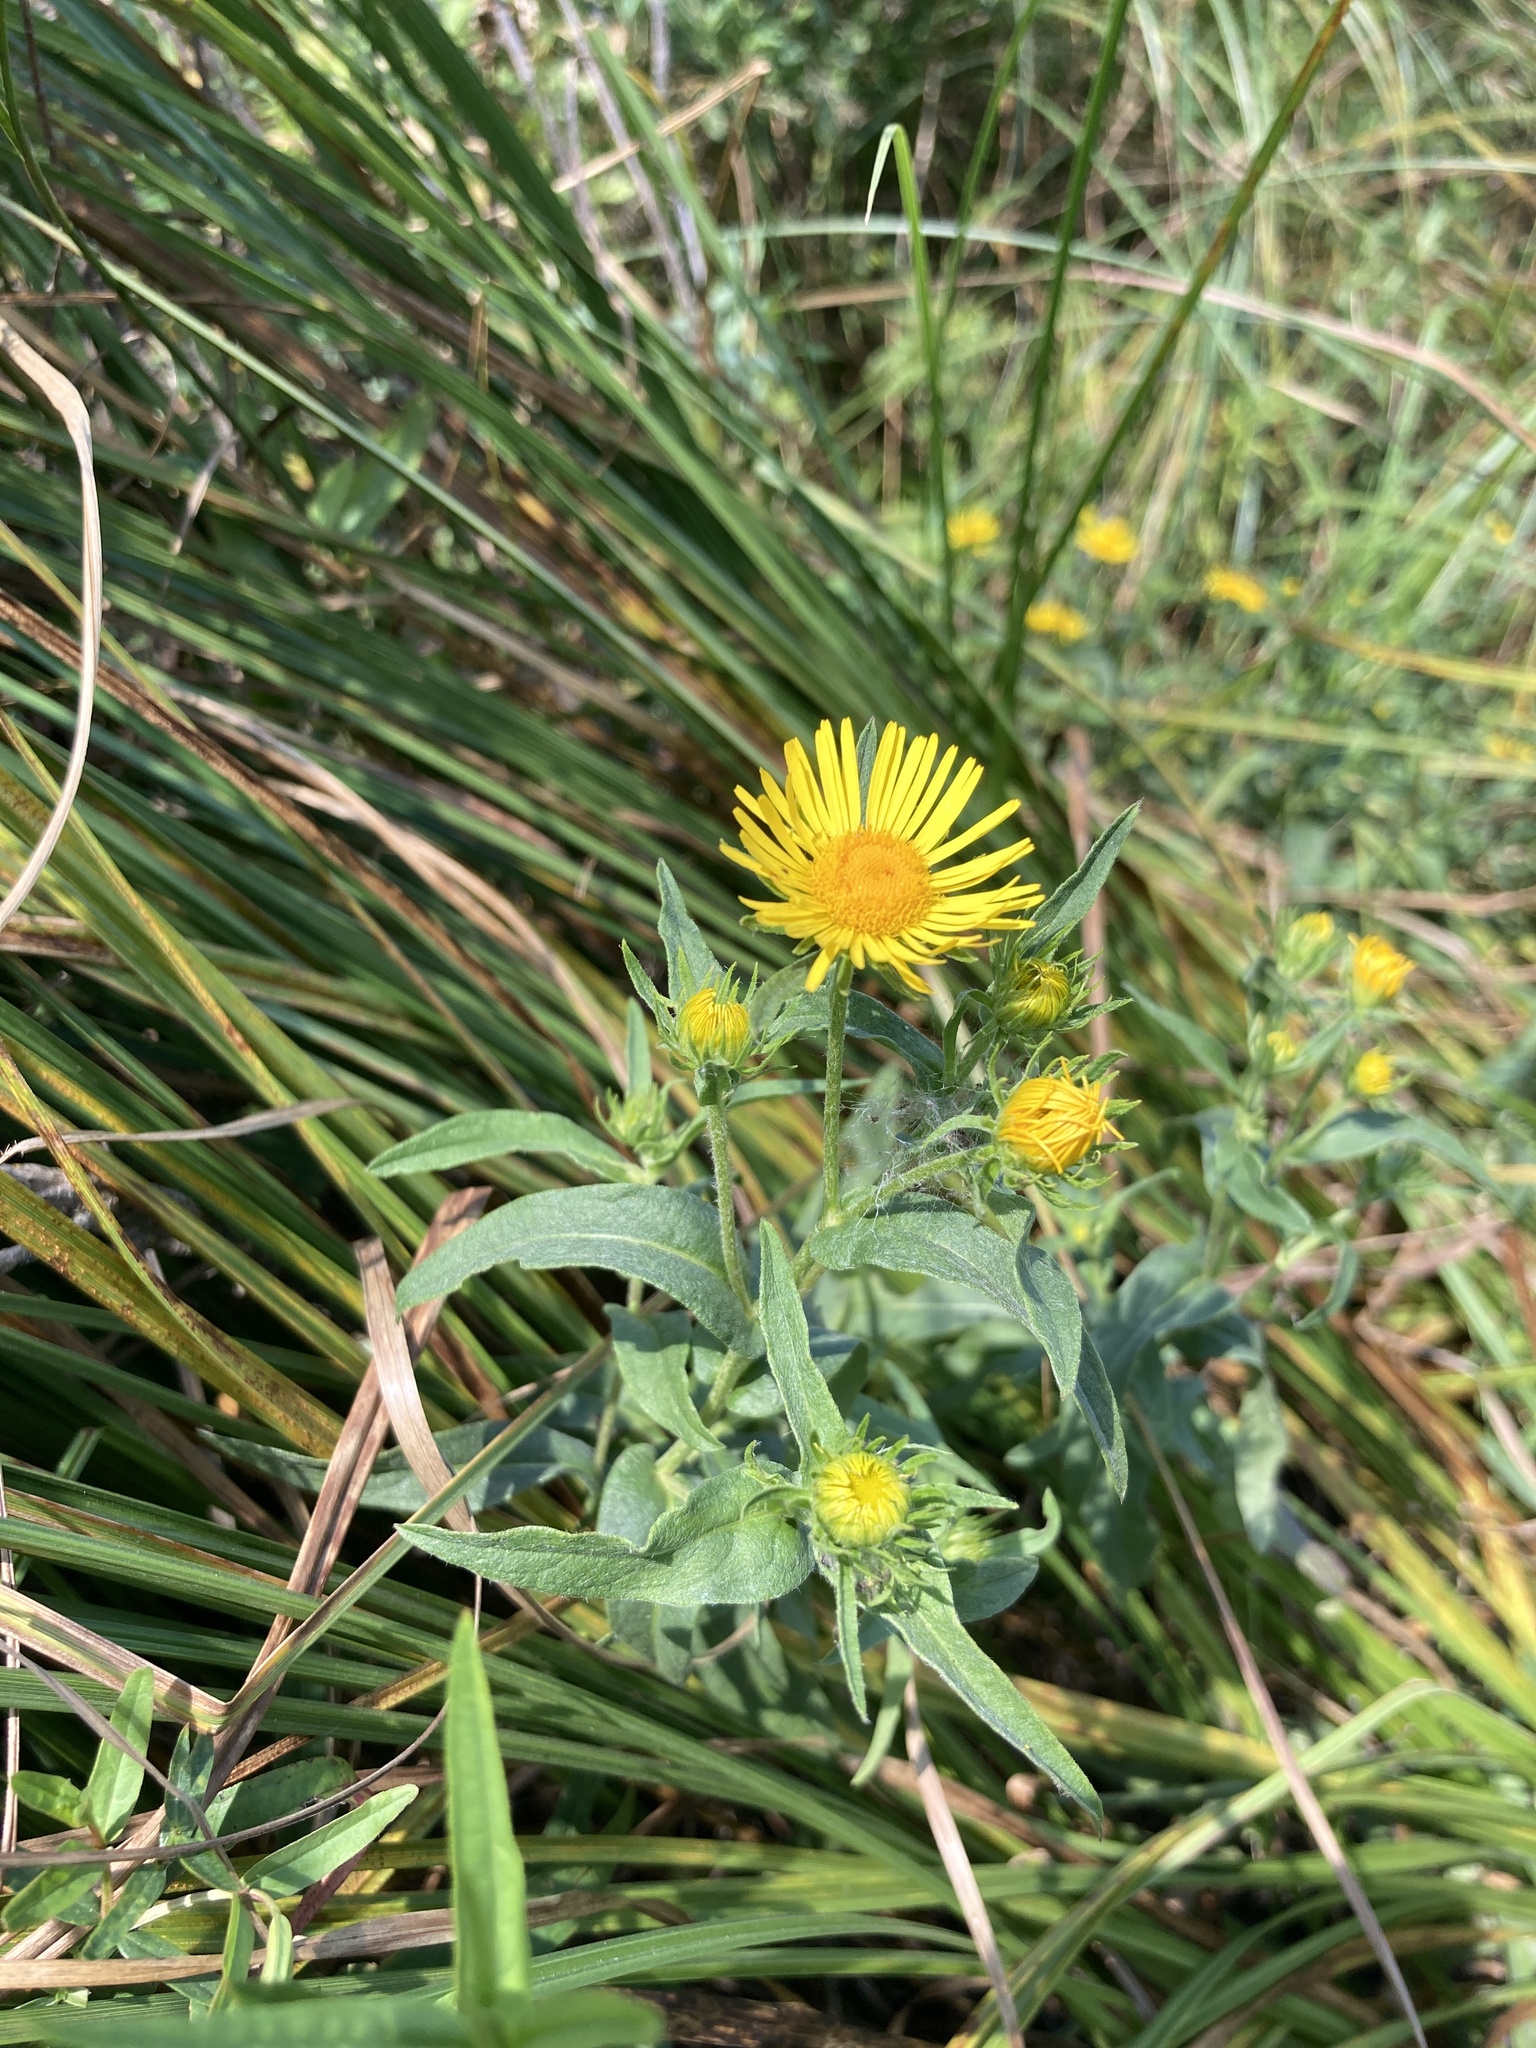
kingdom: Plantae
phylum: Tracheophyta
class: Magnoliopsida
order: Asterales
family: Asteraceae
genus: Pentanema
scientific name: Pentanema britannicum
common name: British elecampane
